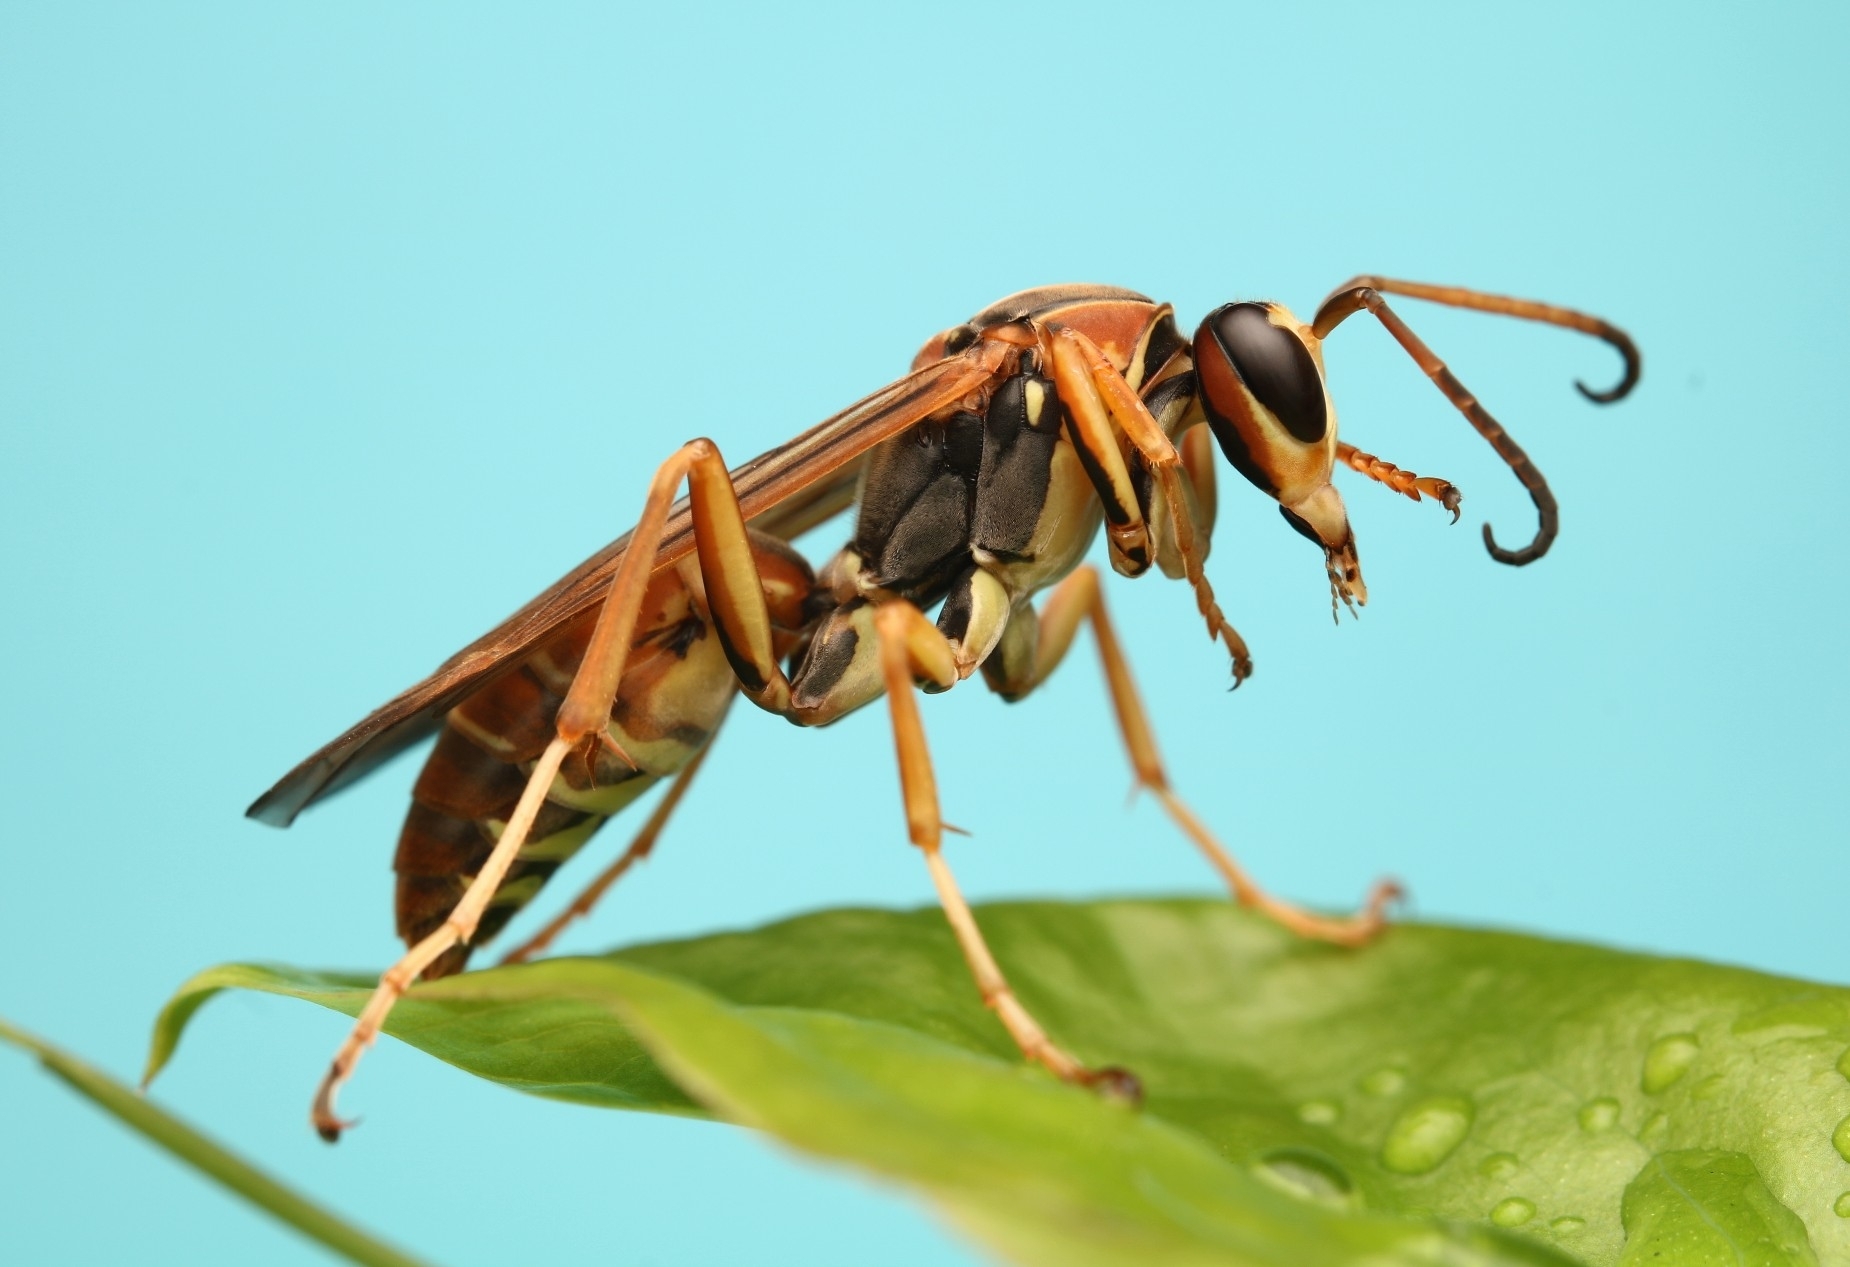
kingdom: Animalia
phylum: Arthropoda
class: Insecta
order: Hymenoptera
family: Eumenidae
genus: Polistes
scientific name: Polistes fuscatus
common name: Dark paper wasp
